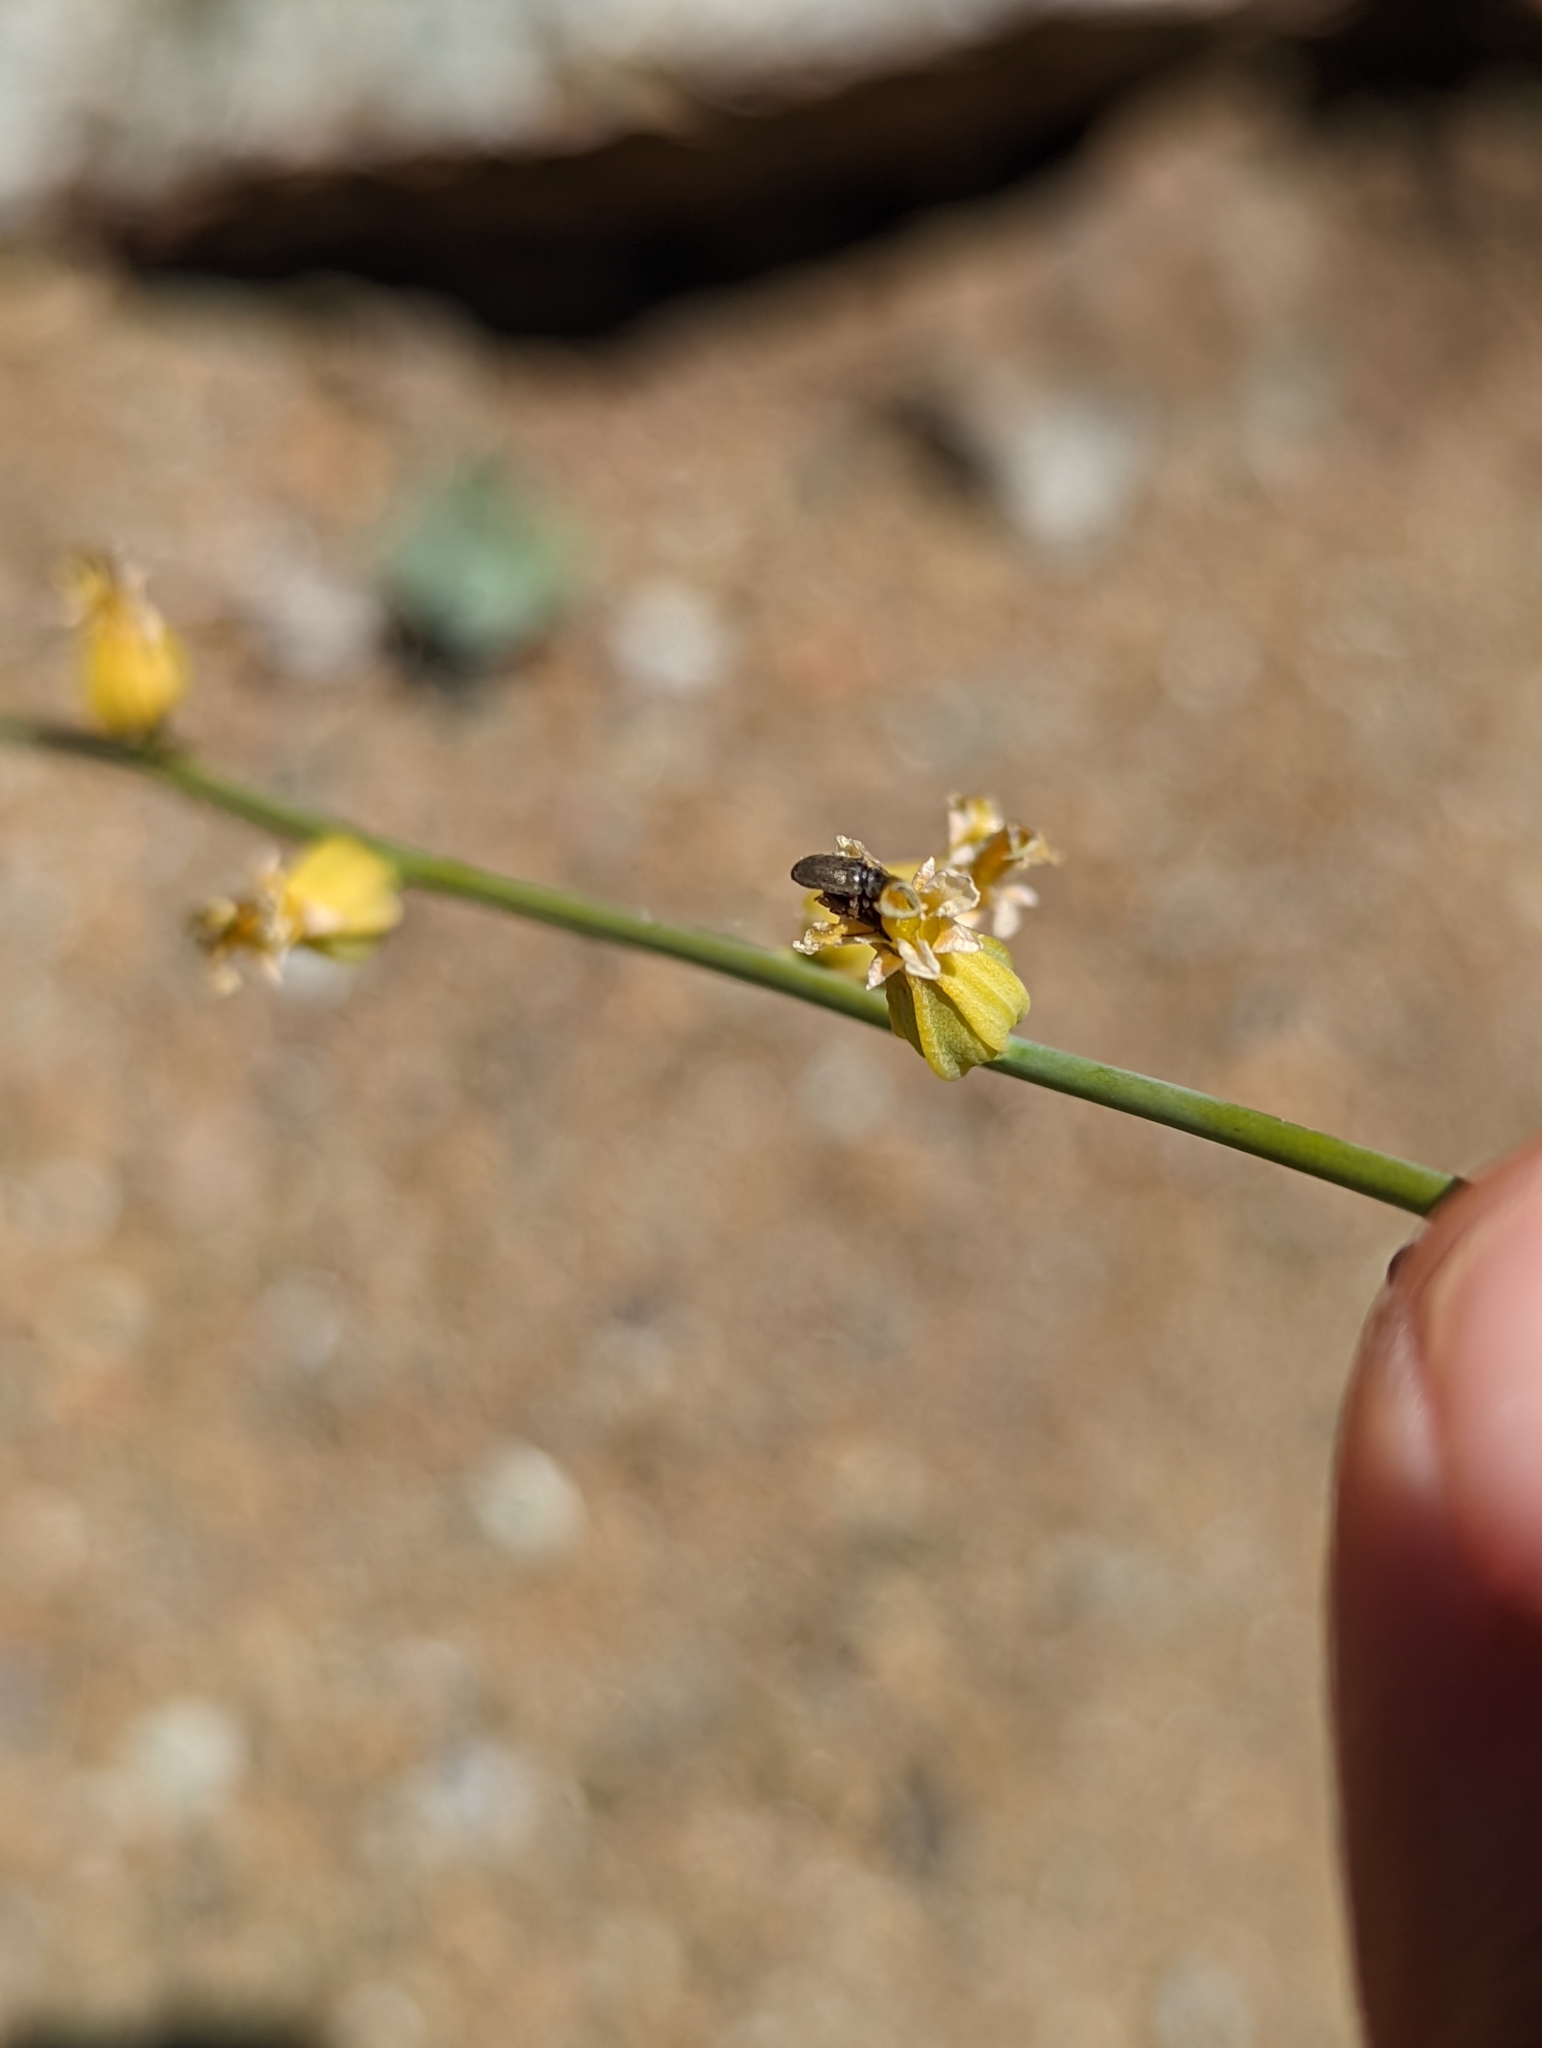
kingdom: Plantae
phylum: Tracheophyta
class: Magnoliopsida
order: Brassicales
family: Brassicaceae
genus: Streptanthus
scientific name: Streptanthus morrisonii
